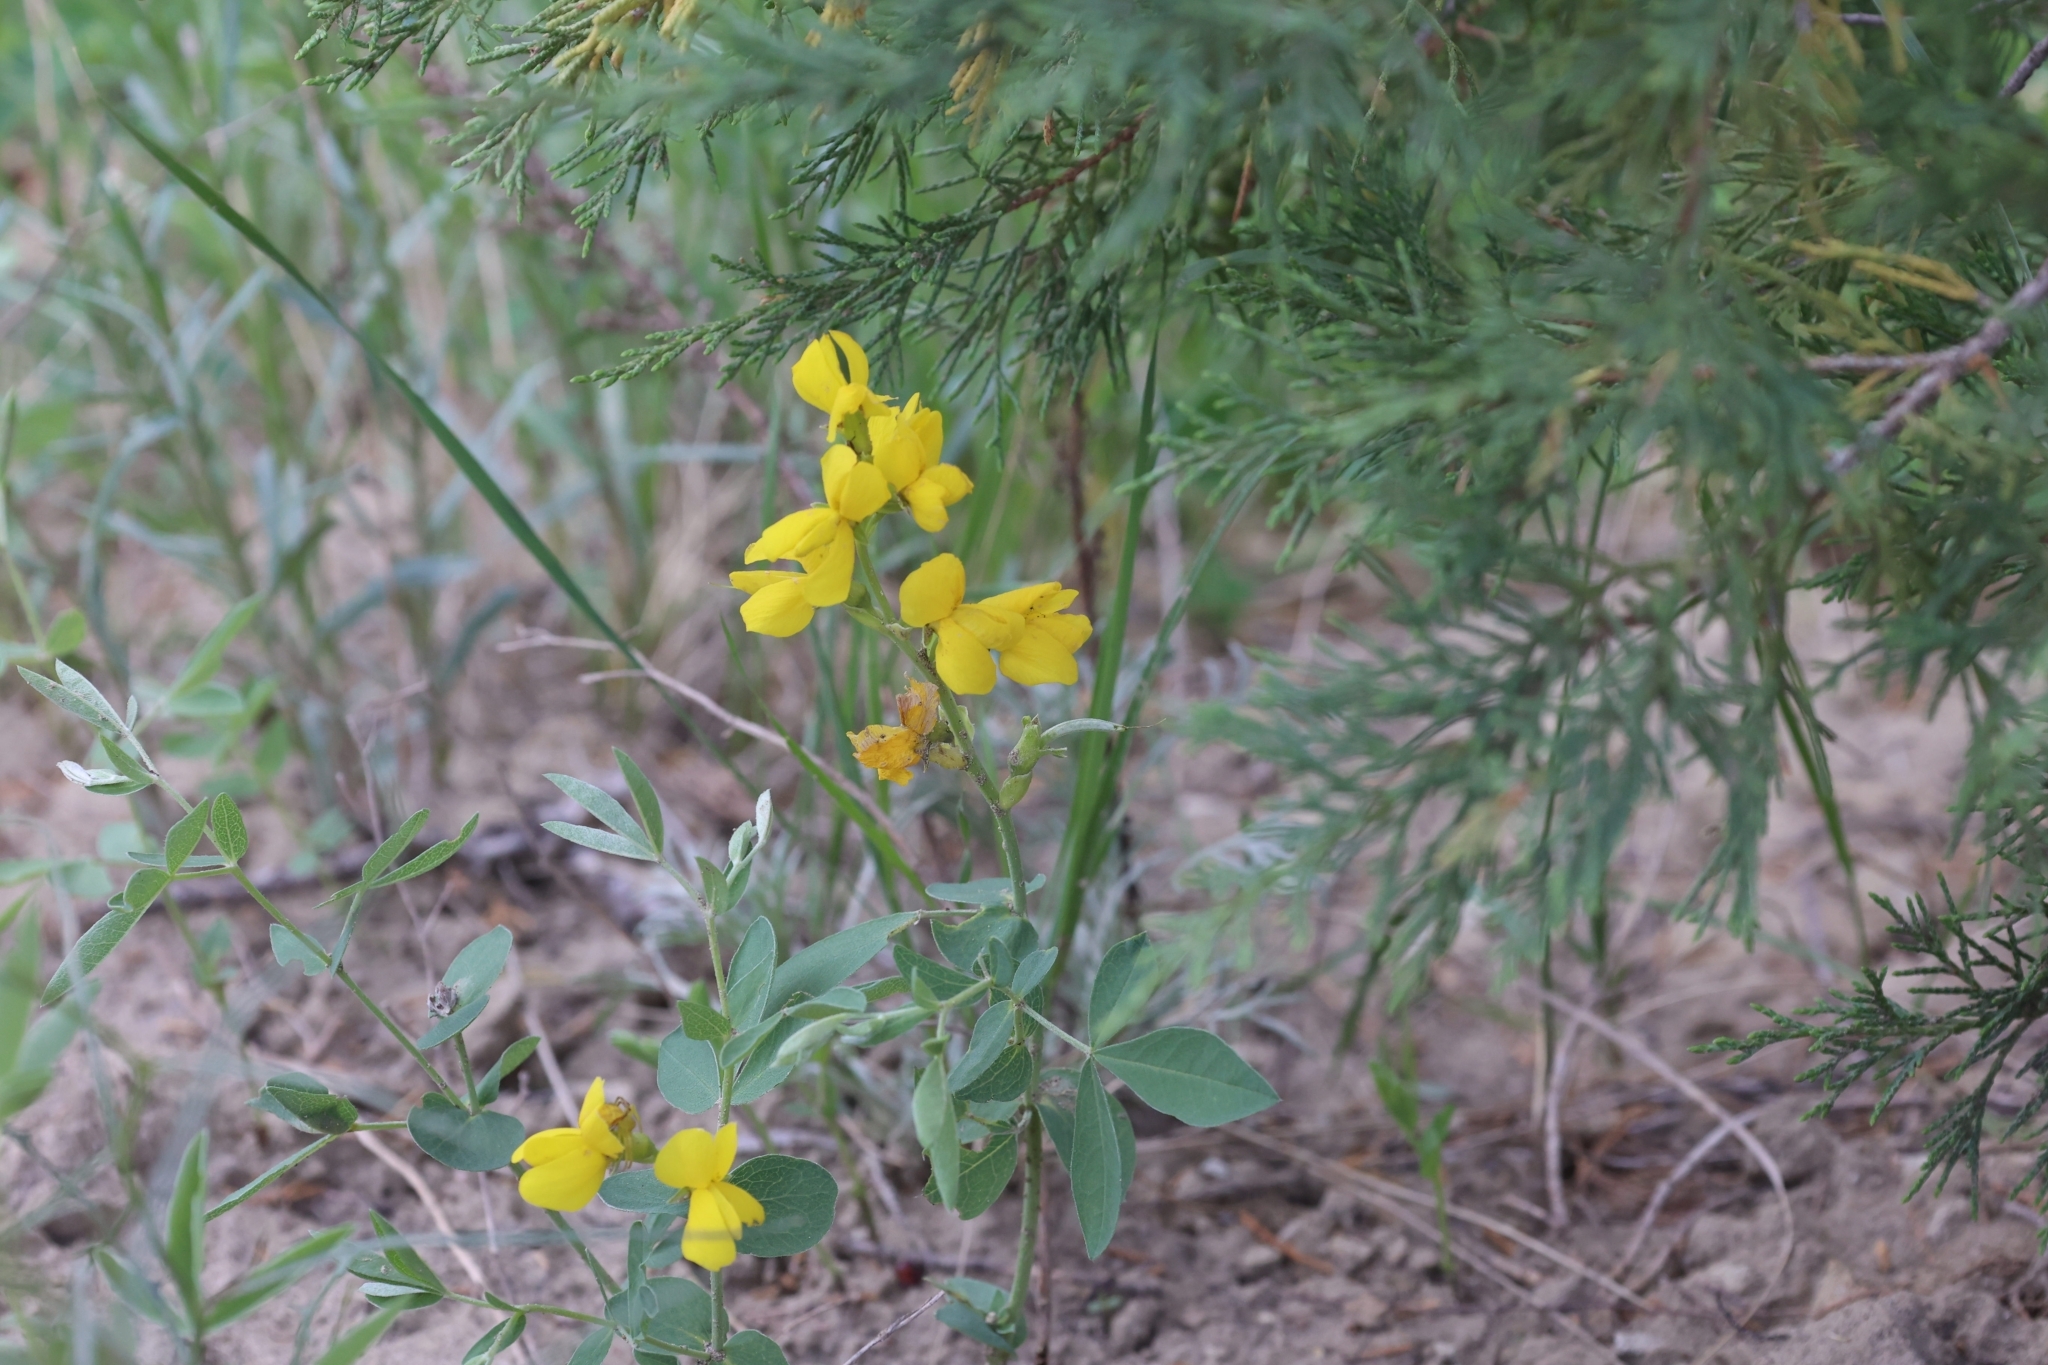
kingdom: Plantae
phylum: Tracheophyta
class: Magnoliopsida
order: Fabales
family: Fabaceae
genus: Thermopsis
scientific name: Thermopsis rhombifolia
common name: Circle-pod-pea
